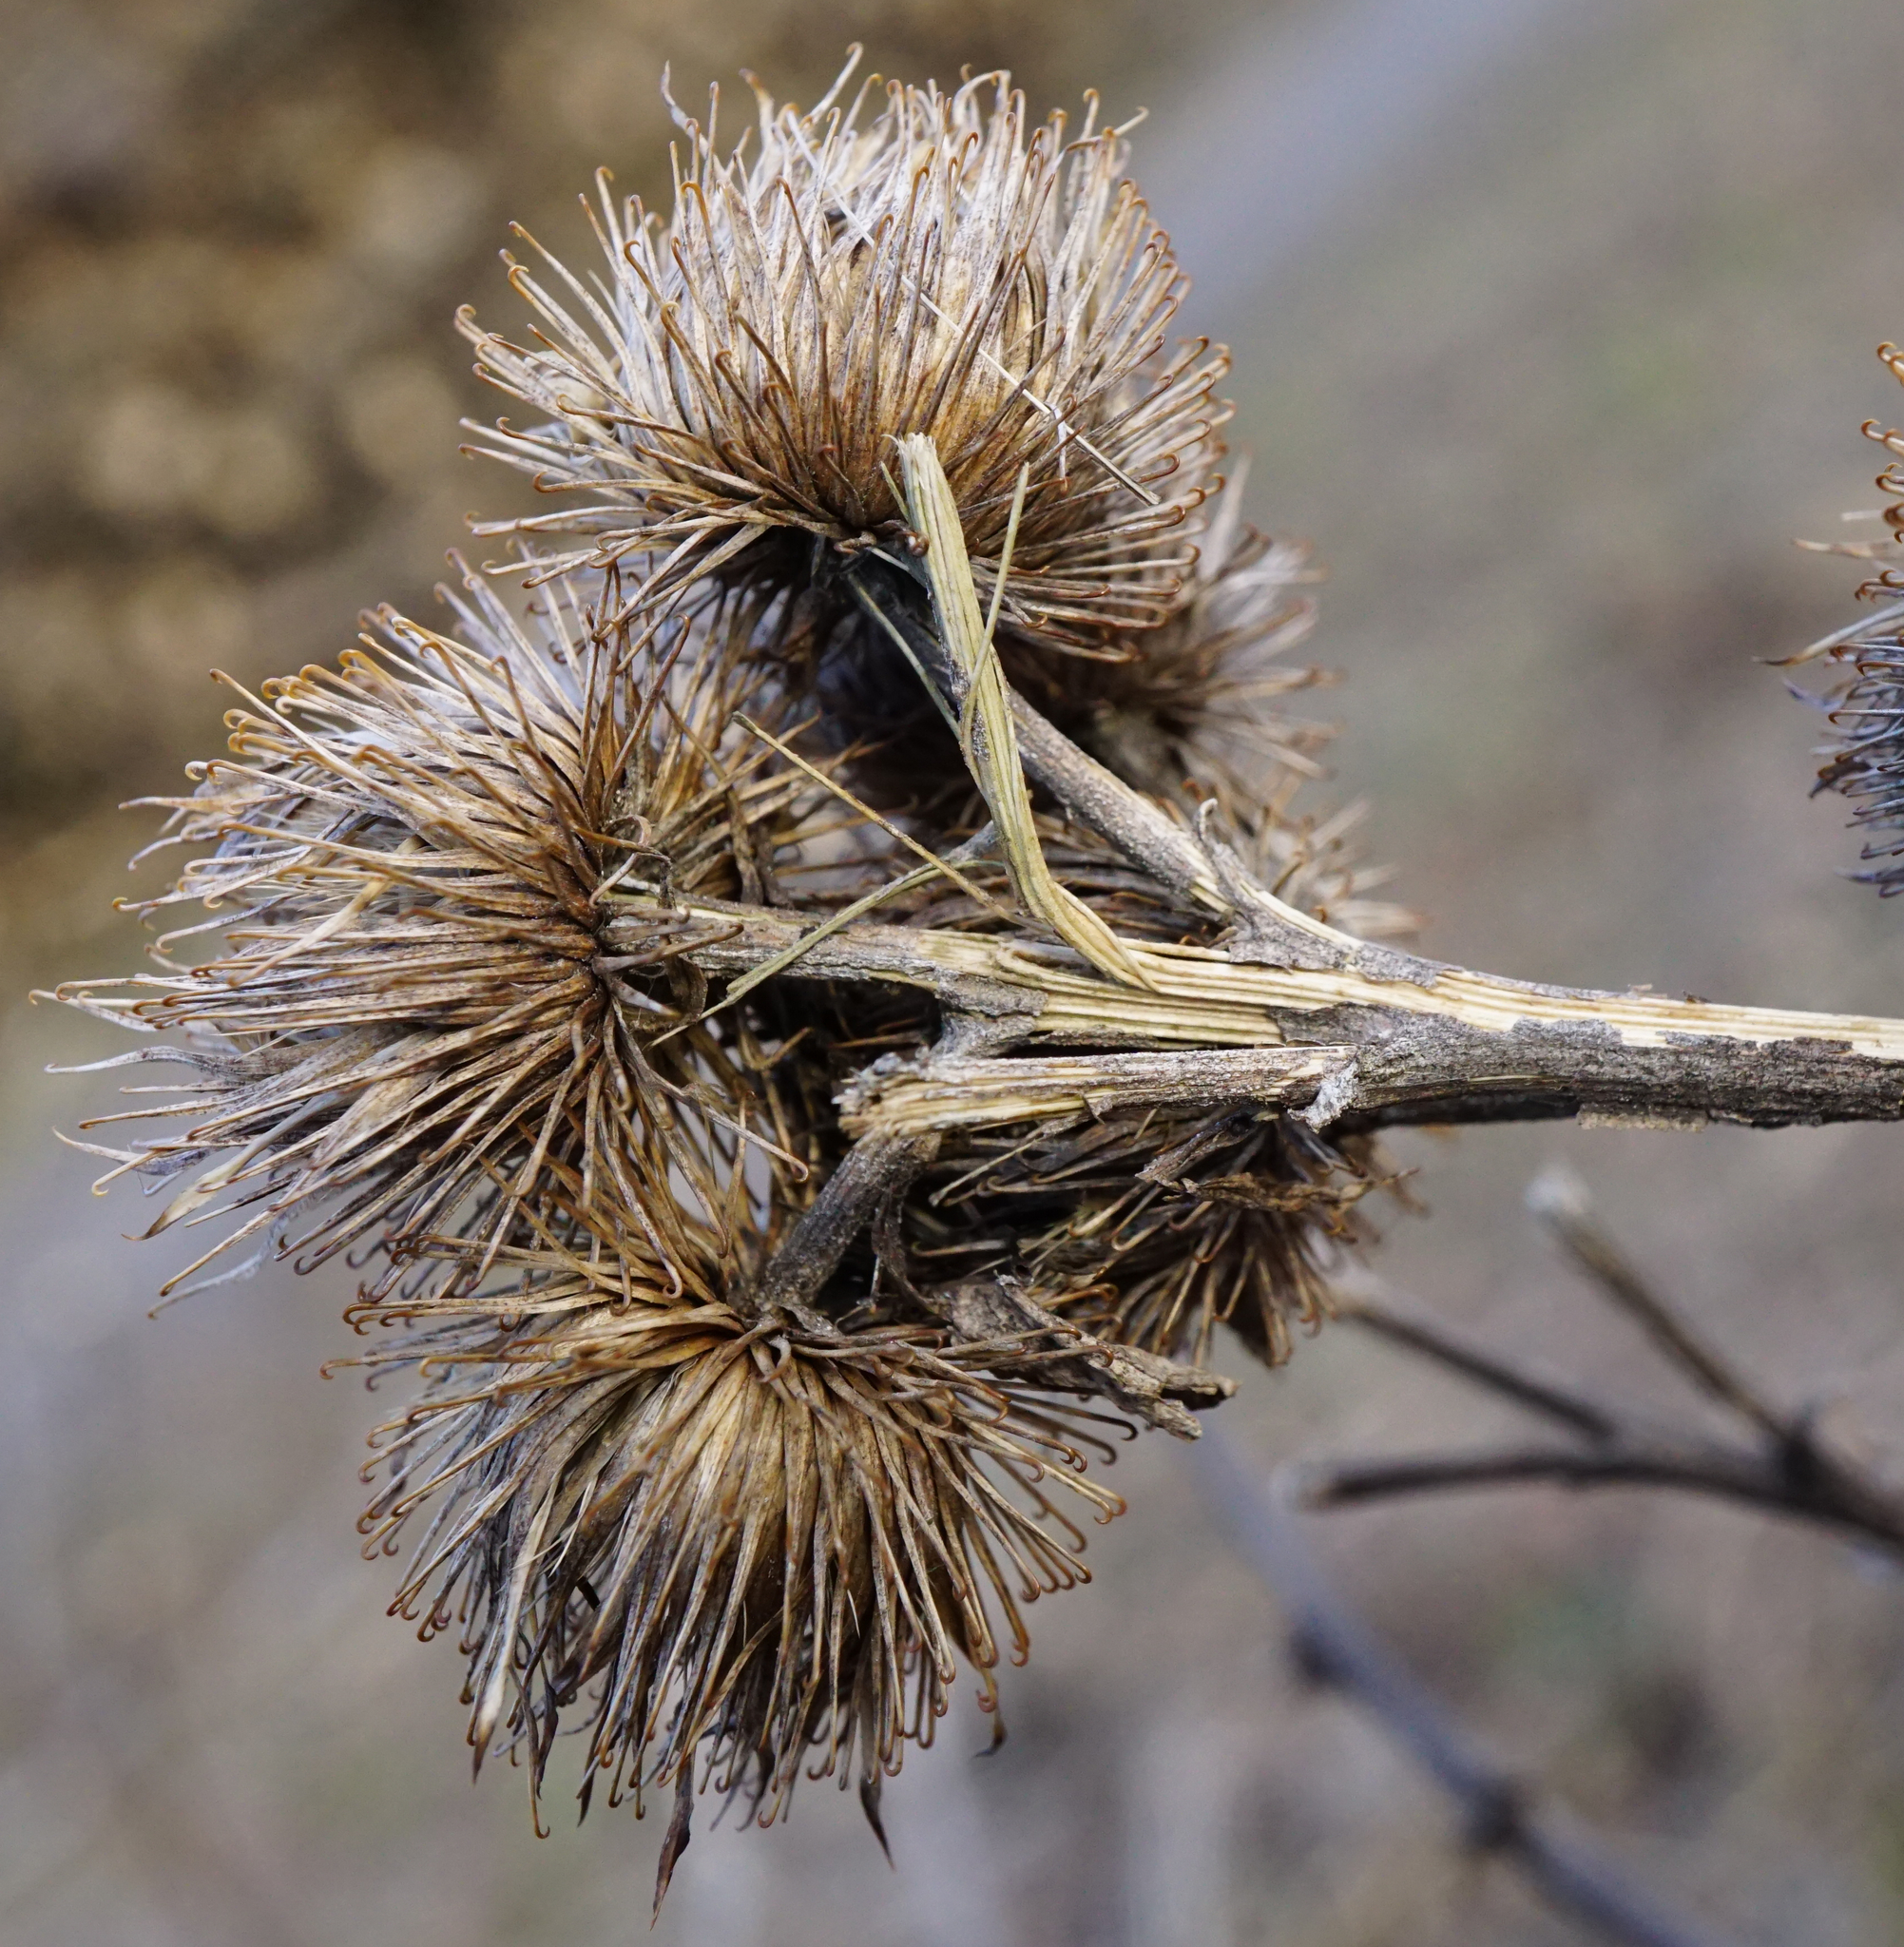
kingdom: Plantae
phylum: Tracheophyta
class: Magnoliopsida
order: Asterales
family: Asteraceae
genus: Arctium
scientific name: Arctium minus
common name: Lesser burdock
